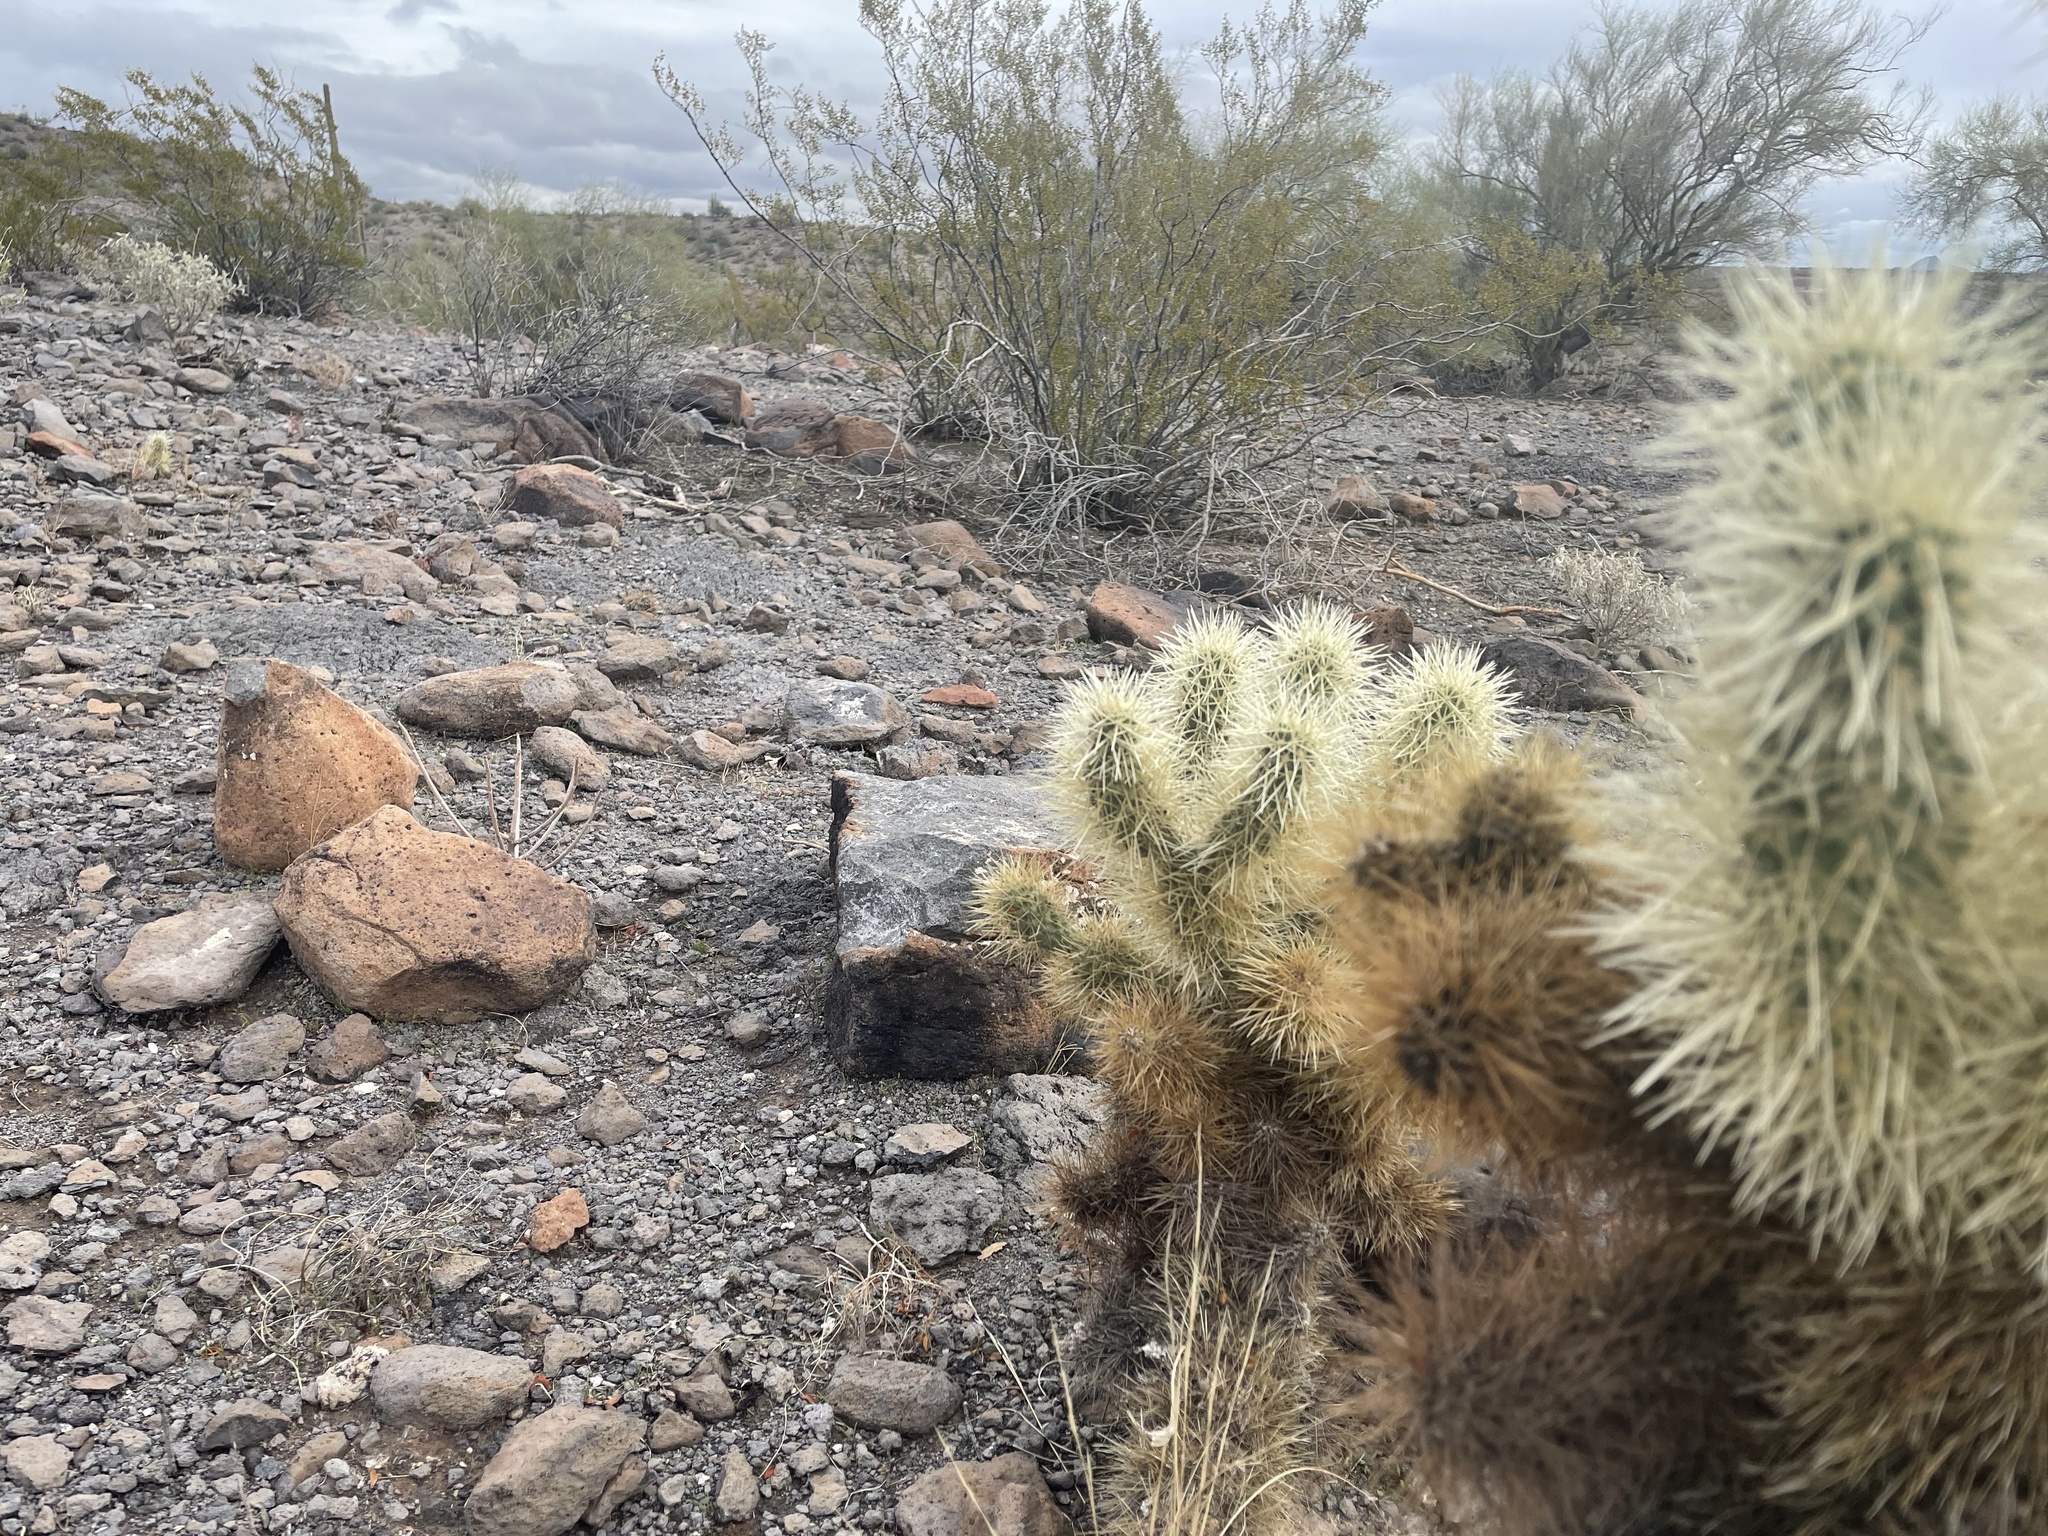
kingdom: Plantae
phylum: Tracheophyta
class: Magnoliopsida
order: Caryophyllales
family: Cactaceae
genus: Cylindropuntia
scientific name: Cylindropuntia fosbergii
